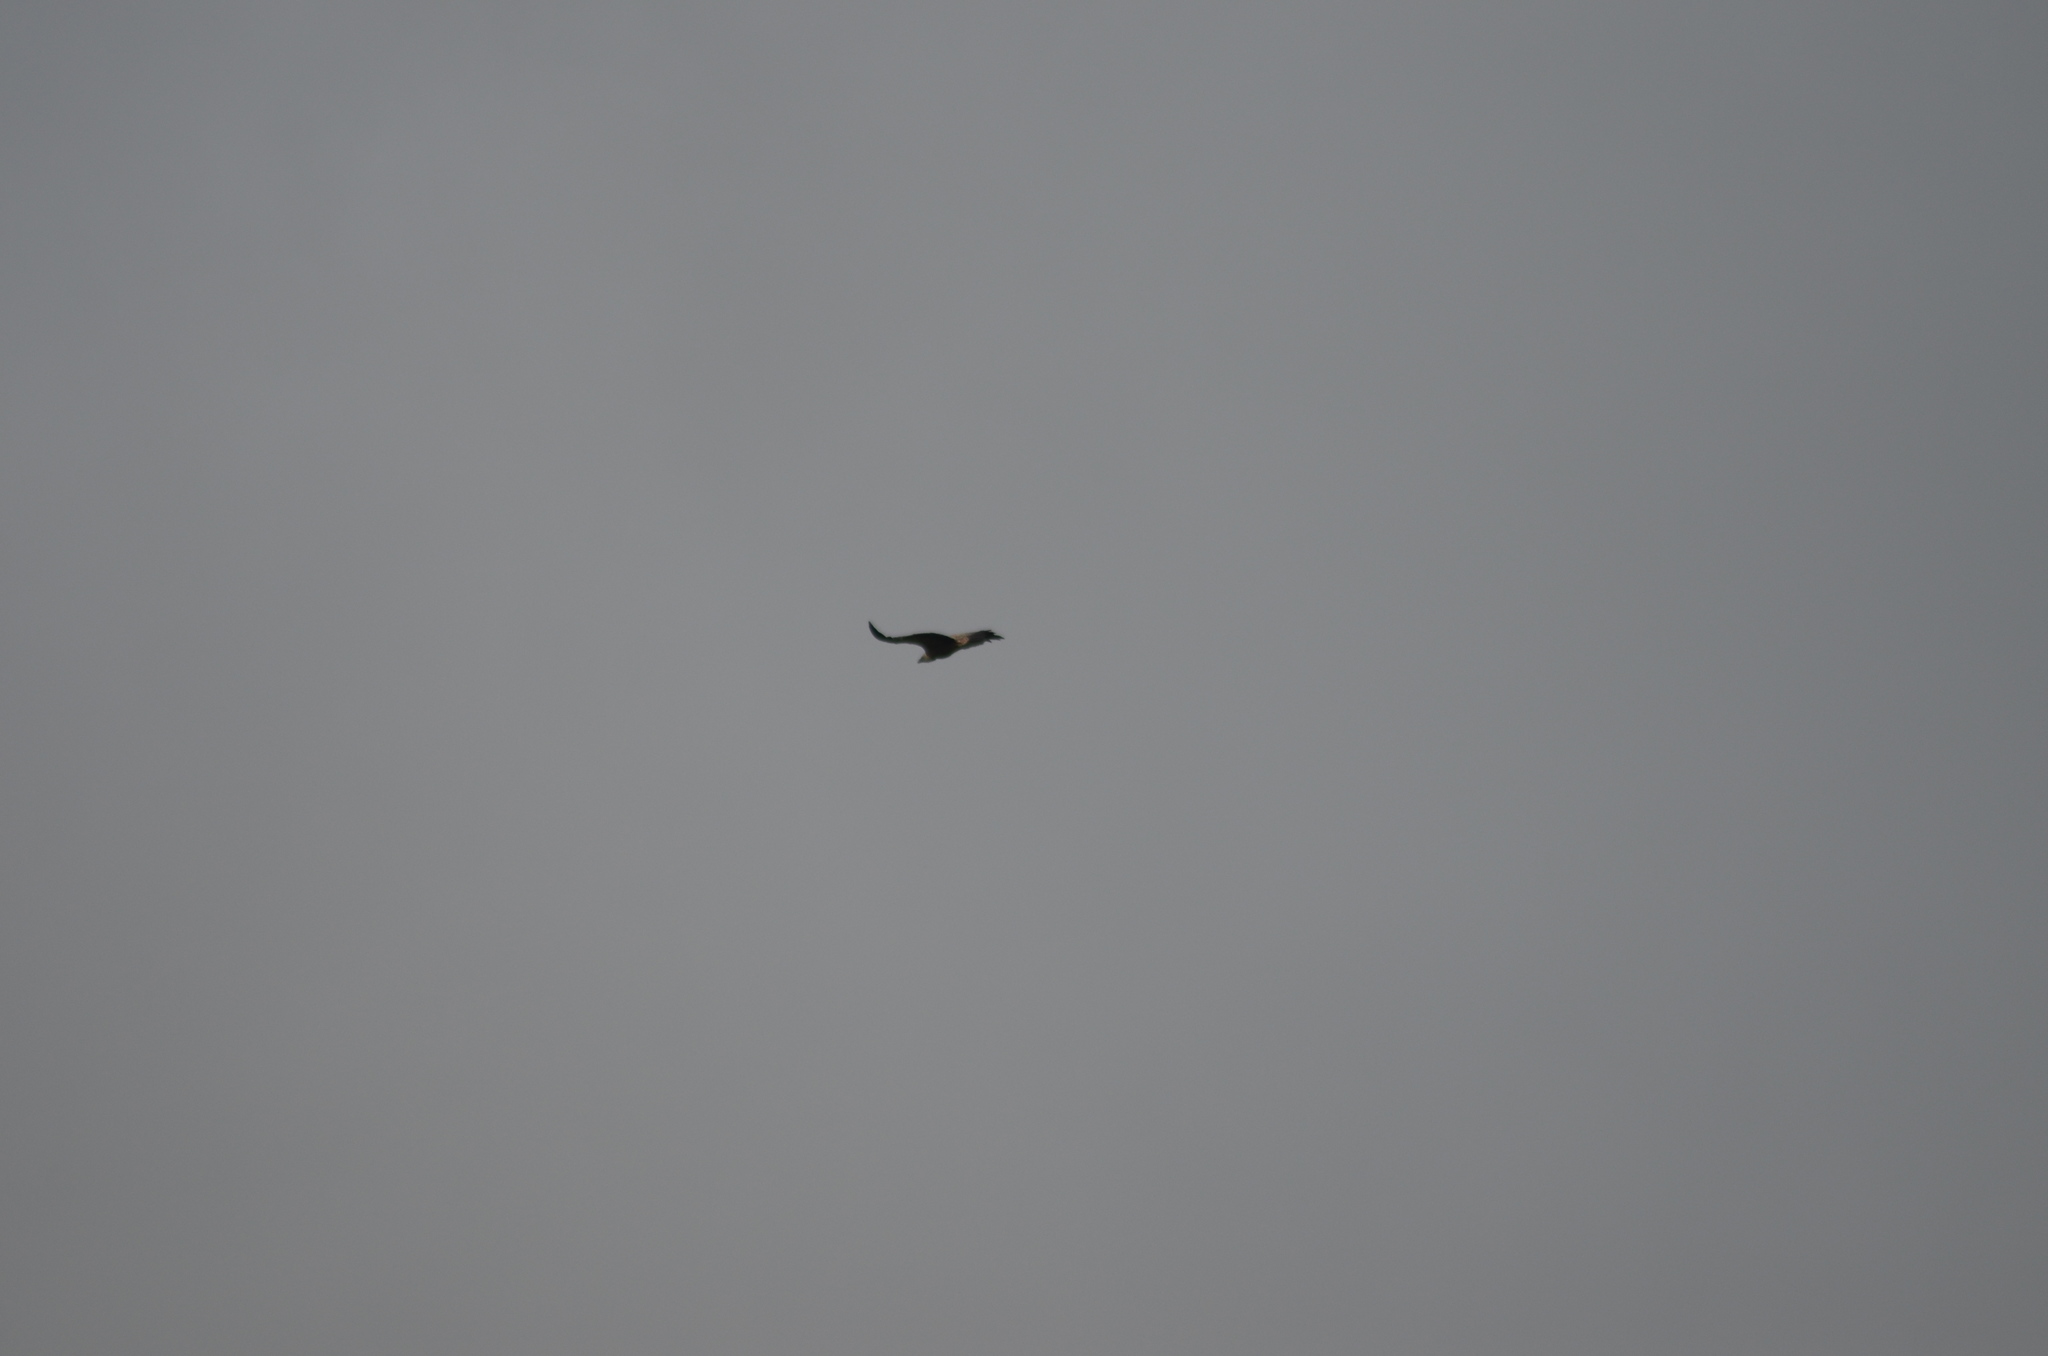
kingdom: Animalia
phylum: Chordata
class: Aves
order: Accipitriformes
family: Accipitridae
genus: Gyps
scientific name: Gyps fulvus
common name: Griffon vulture
